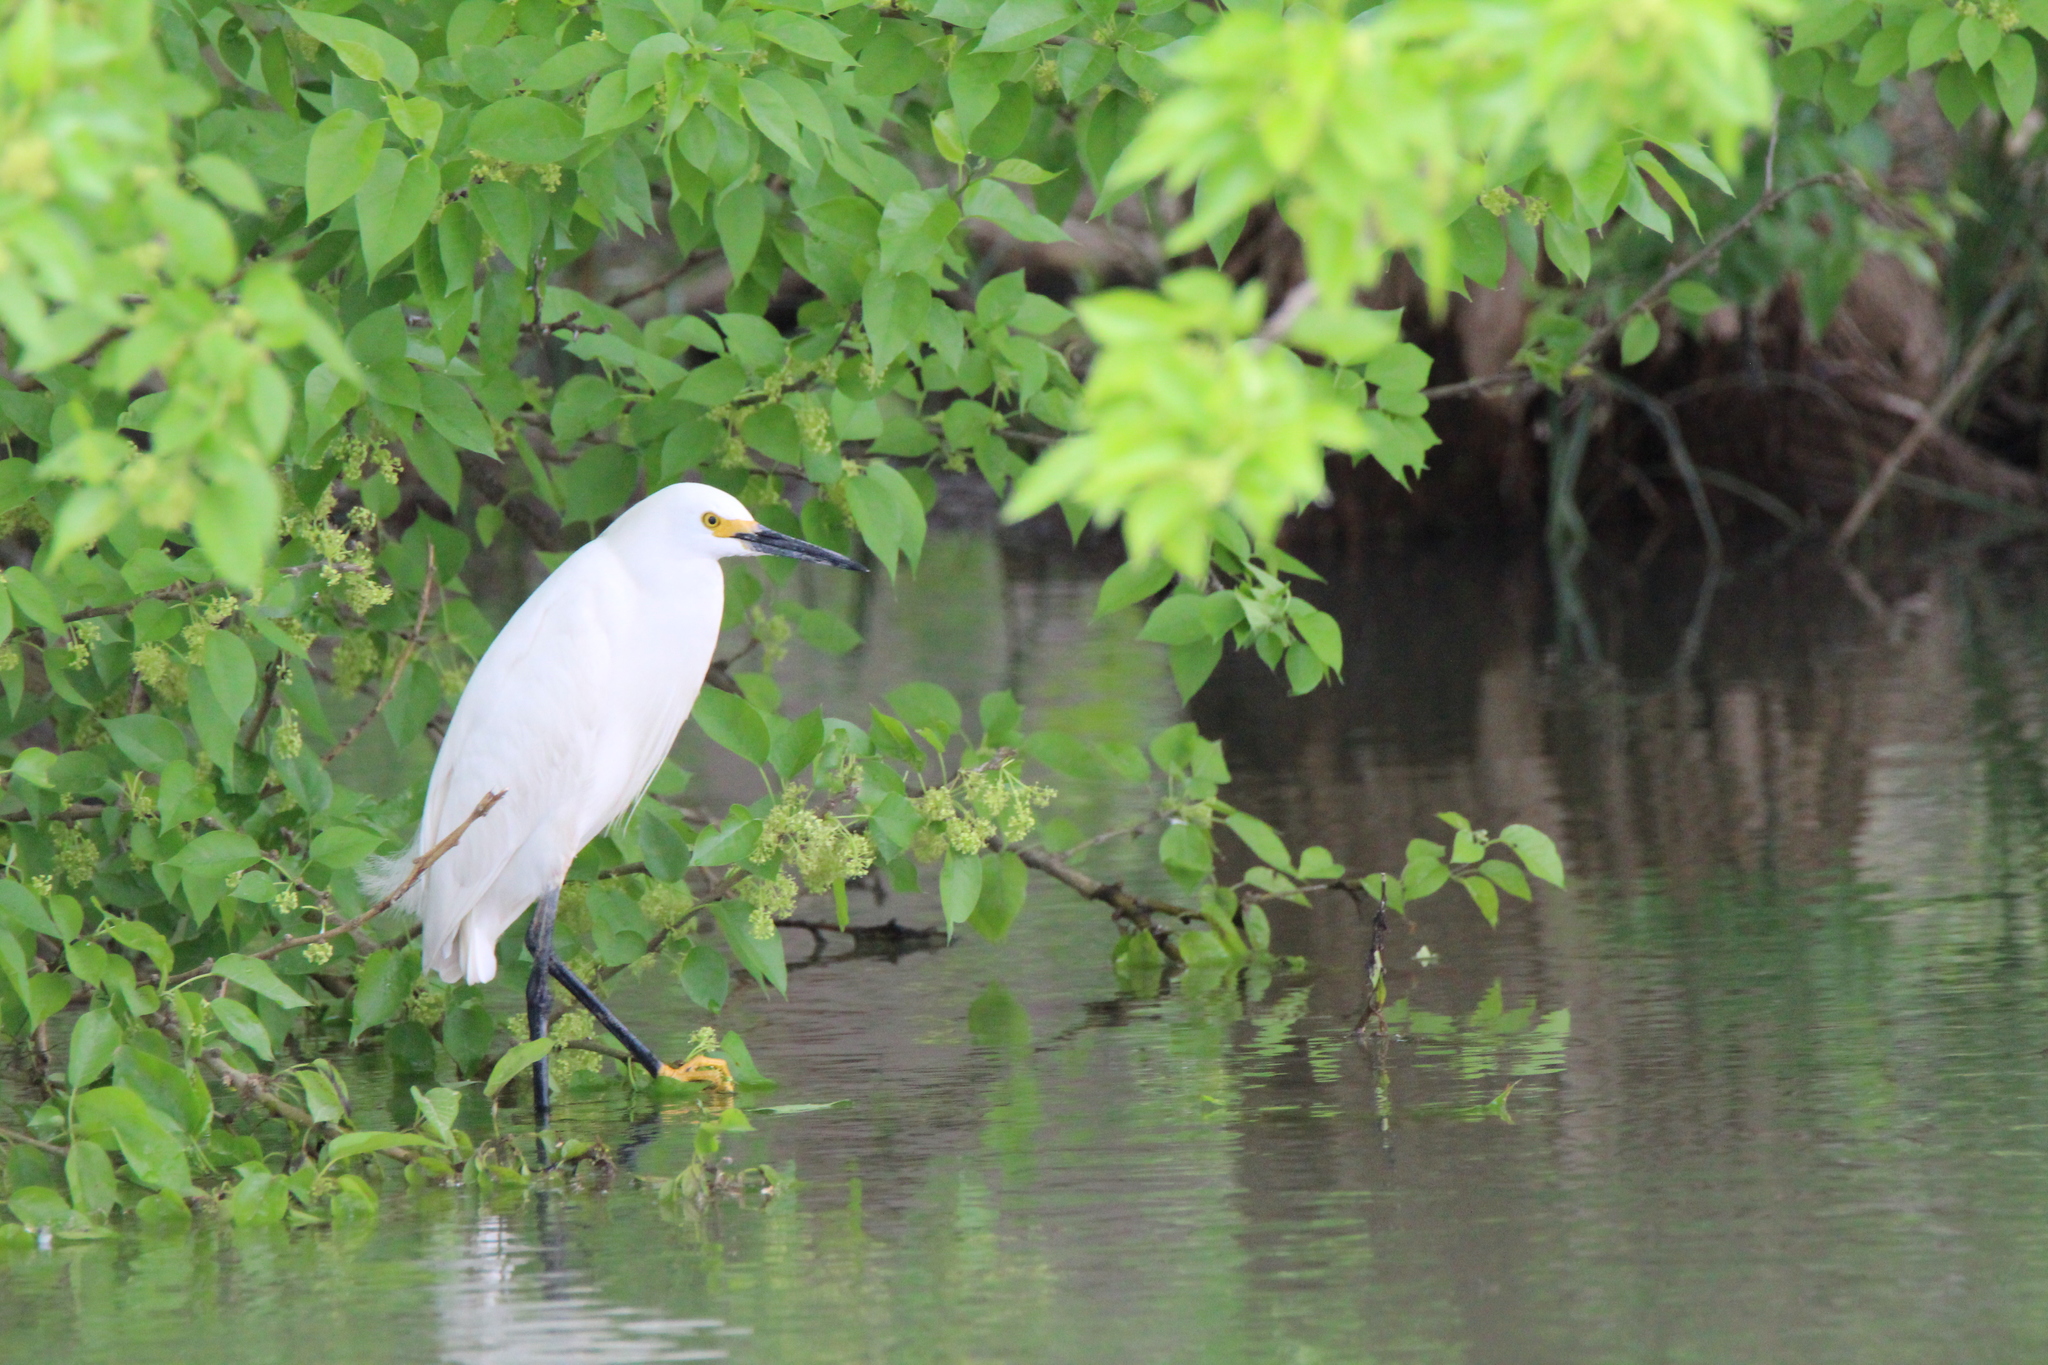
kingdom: Animalia
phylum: Chordata
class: Aves
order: Pelecaniformes
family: Ardeidae
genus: Egretta
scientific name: Egretta thula
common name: Snowy egret
